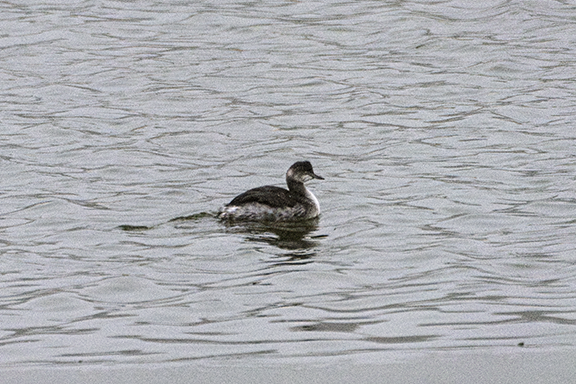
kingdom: Animalia
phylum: Chordata
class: Aves
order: Podicipediformes
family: Podicipedidae
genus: Podiceps
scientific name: Podiceps nigricollis
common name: Black-necked grebe
